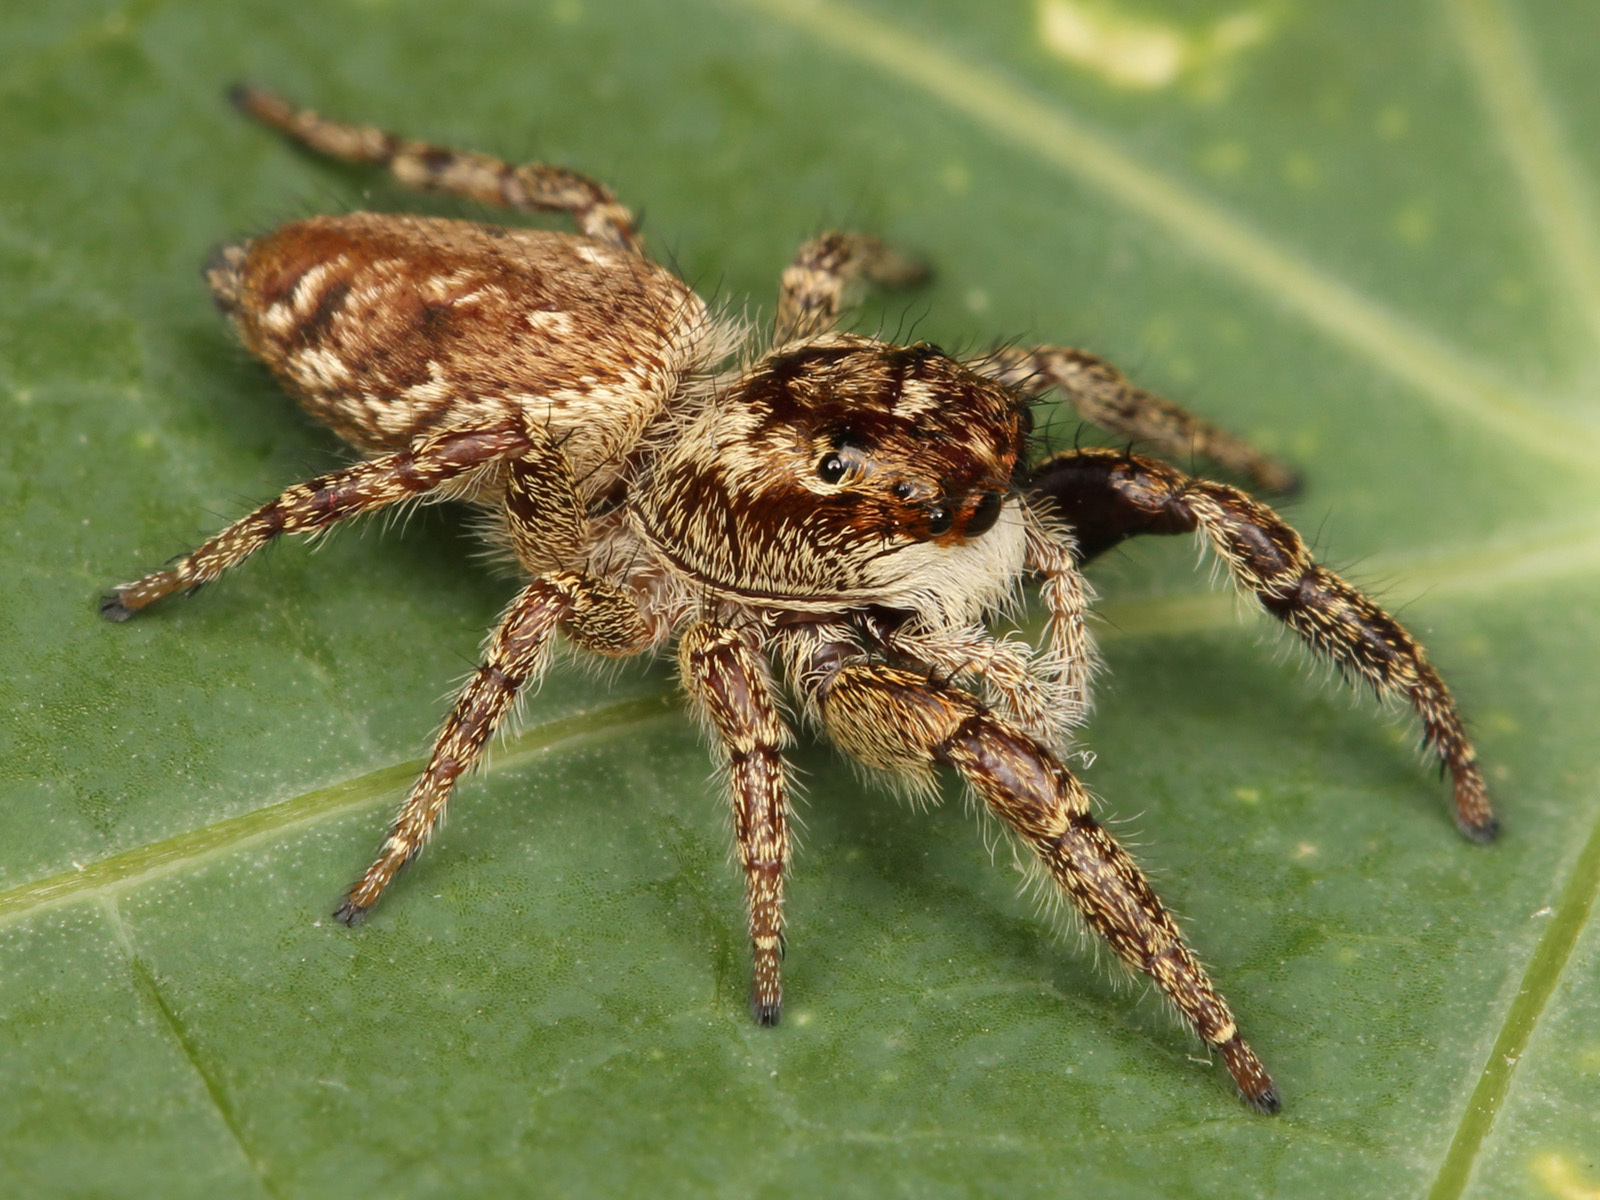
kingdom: Animalia
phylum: Arthropoda
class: Arachnida
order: Araneae
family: Salticidae
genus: Phanias
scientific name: Phanias albeolus
